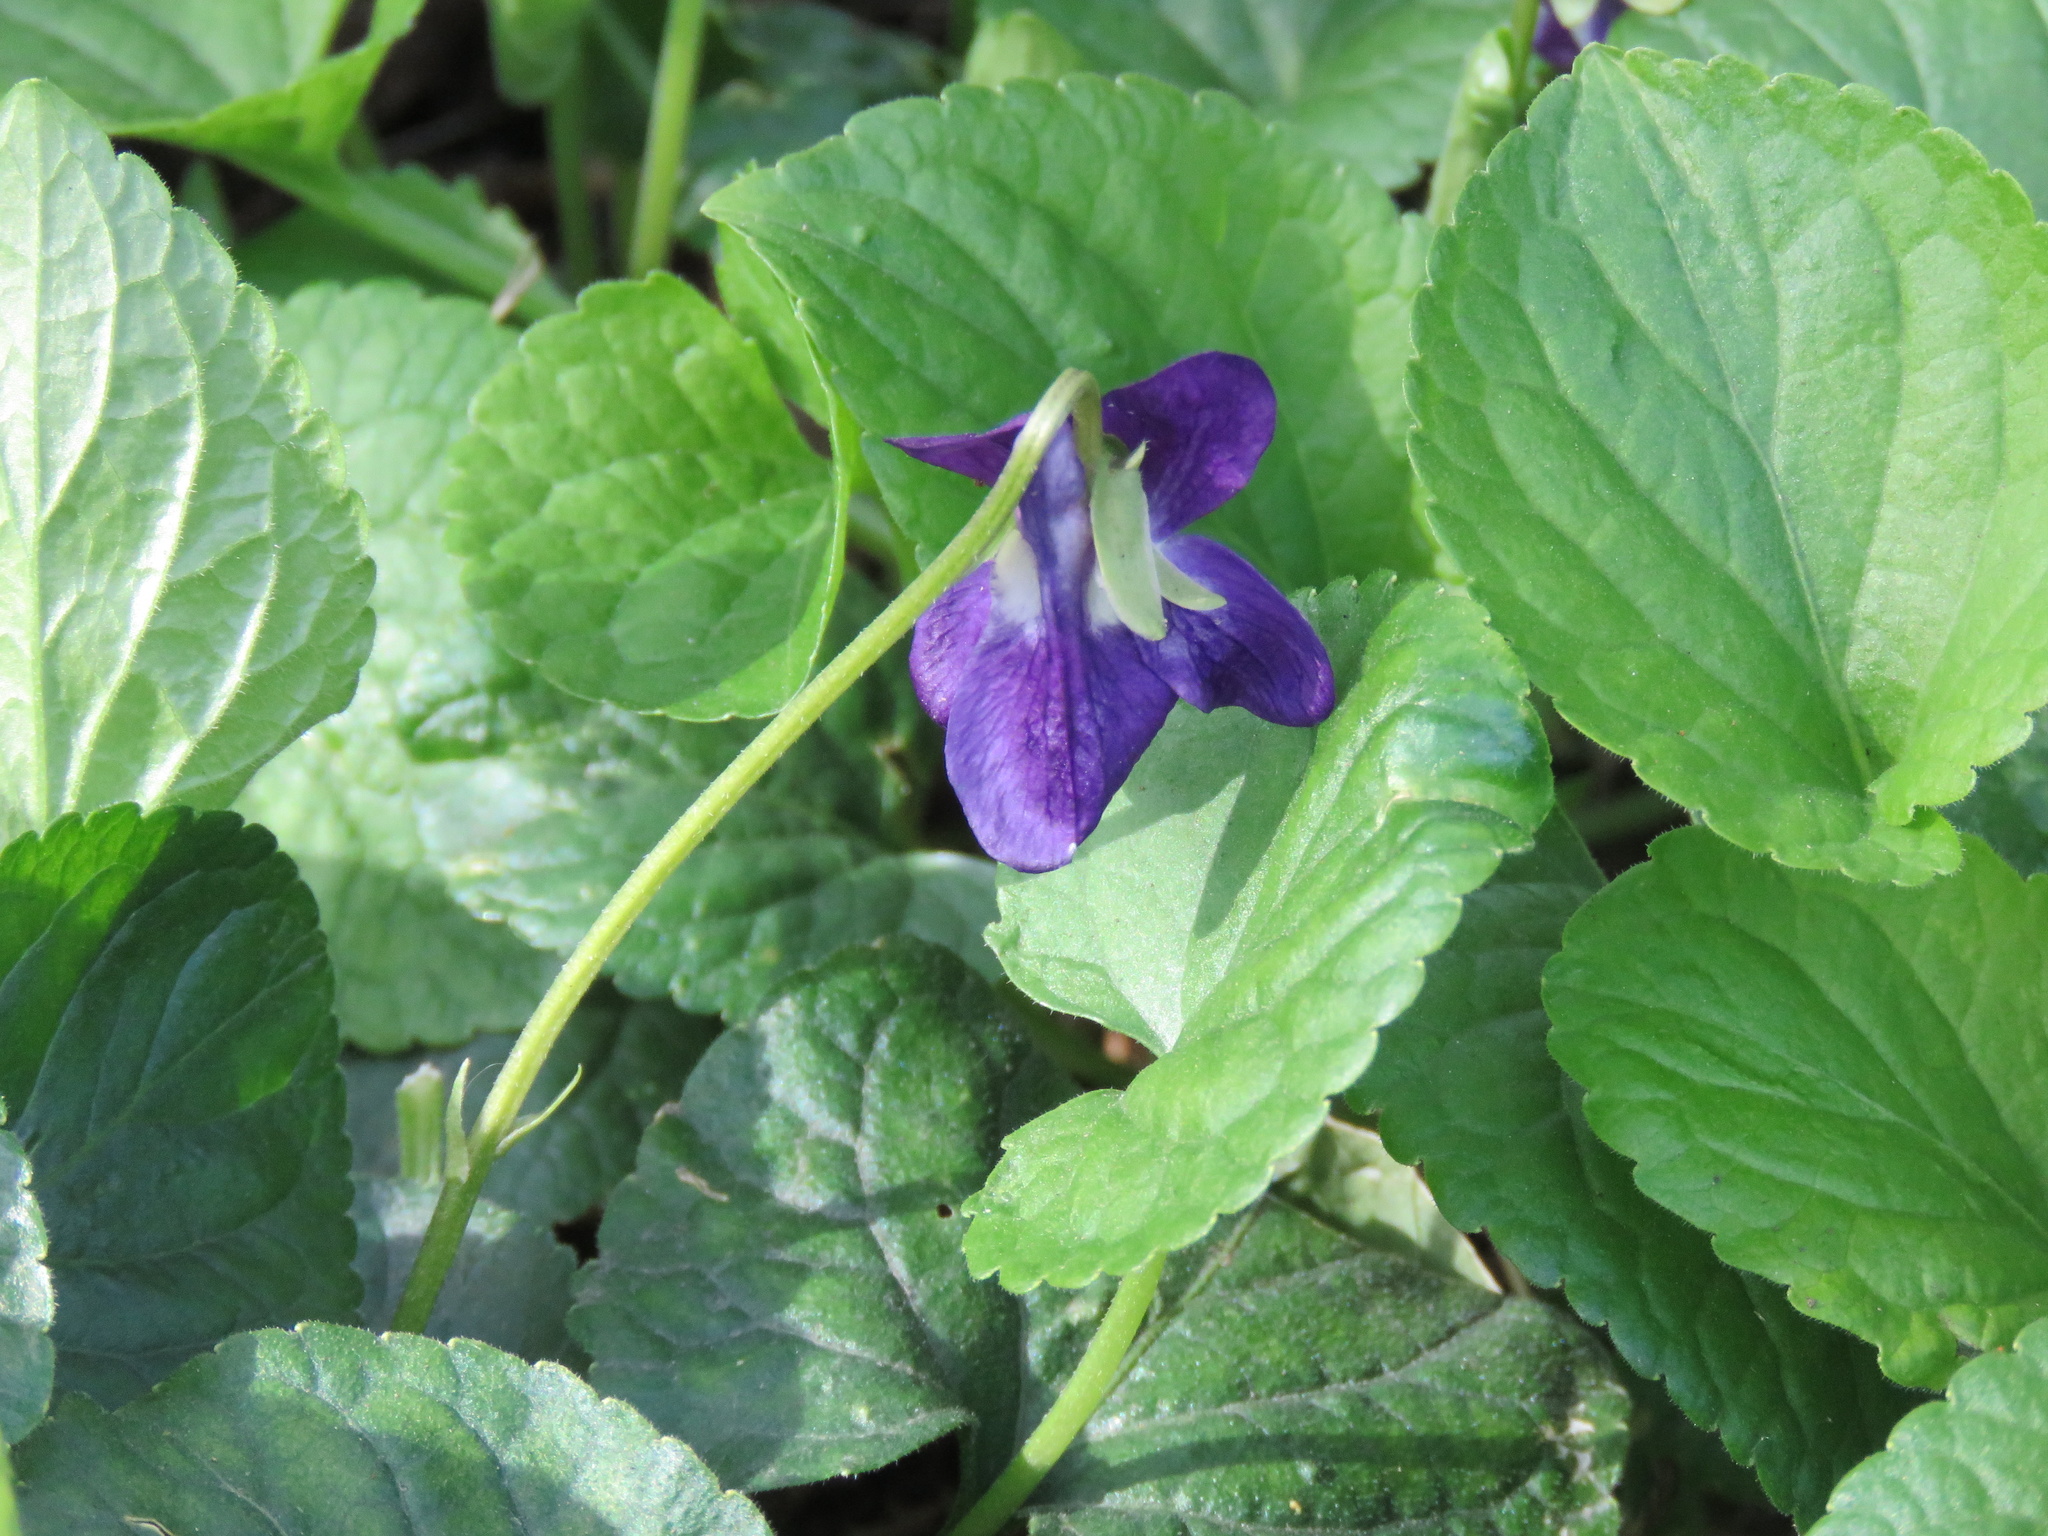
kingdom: Plantae
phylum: Tracheophyta
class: Magnoliopsida
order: Malpighiales
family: Violaceae
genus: Viola
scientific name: Viola odorata
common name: Sweet violet
